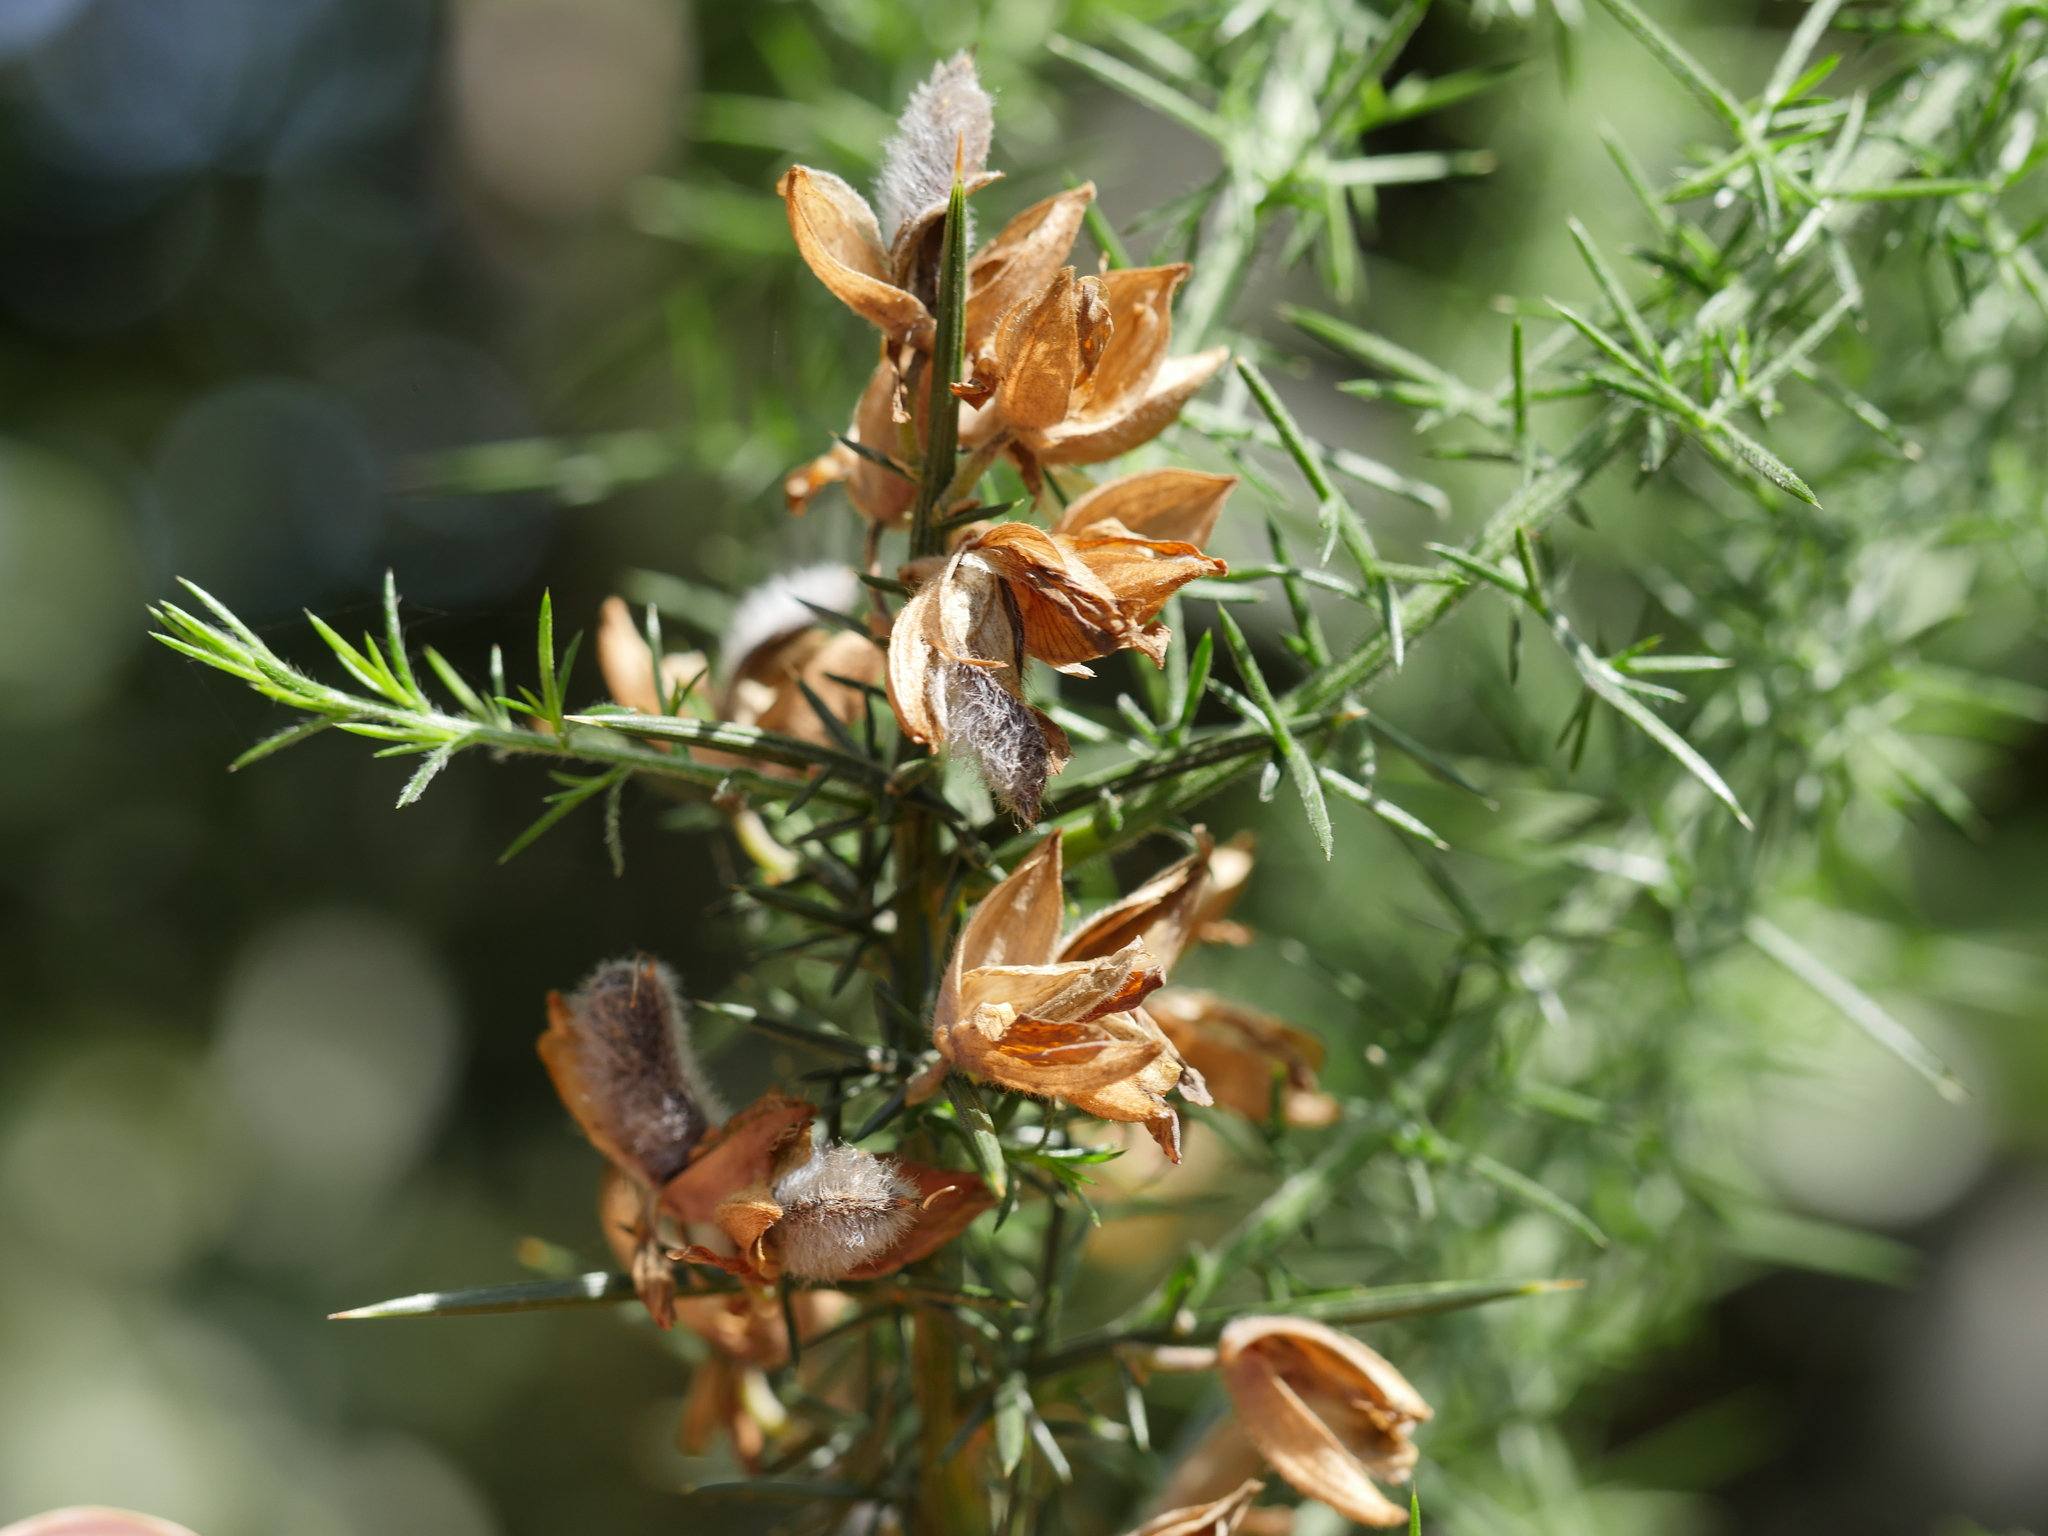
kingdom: Plantae
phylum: Tracheophyta
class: Magnoliopsida
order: Fabales
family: Fabaceae
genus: Ulex
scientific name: Ulex europaeus
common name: Common gorse
